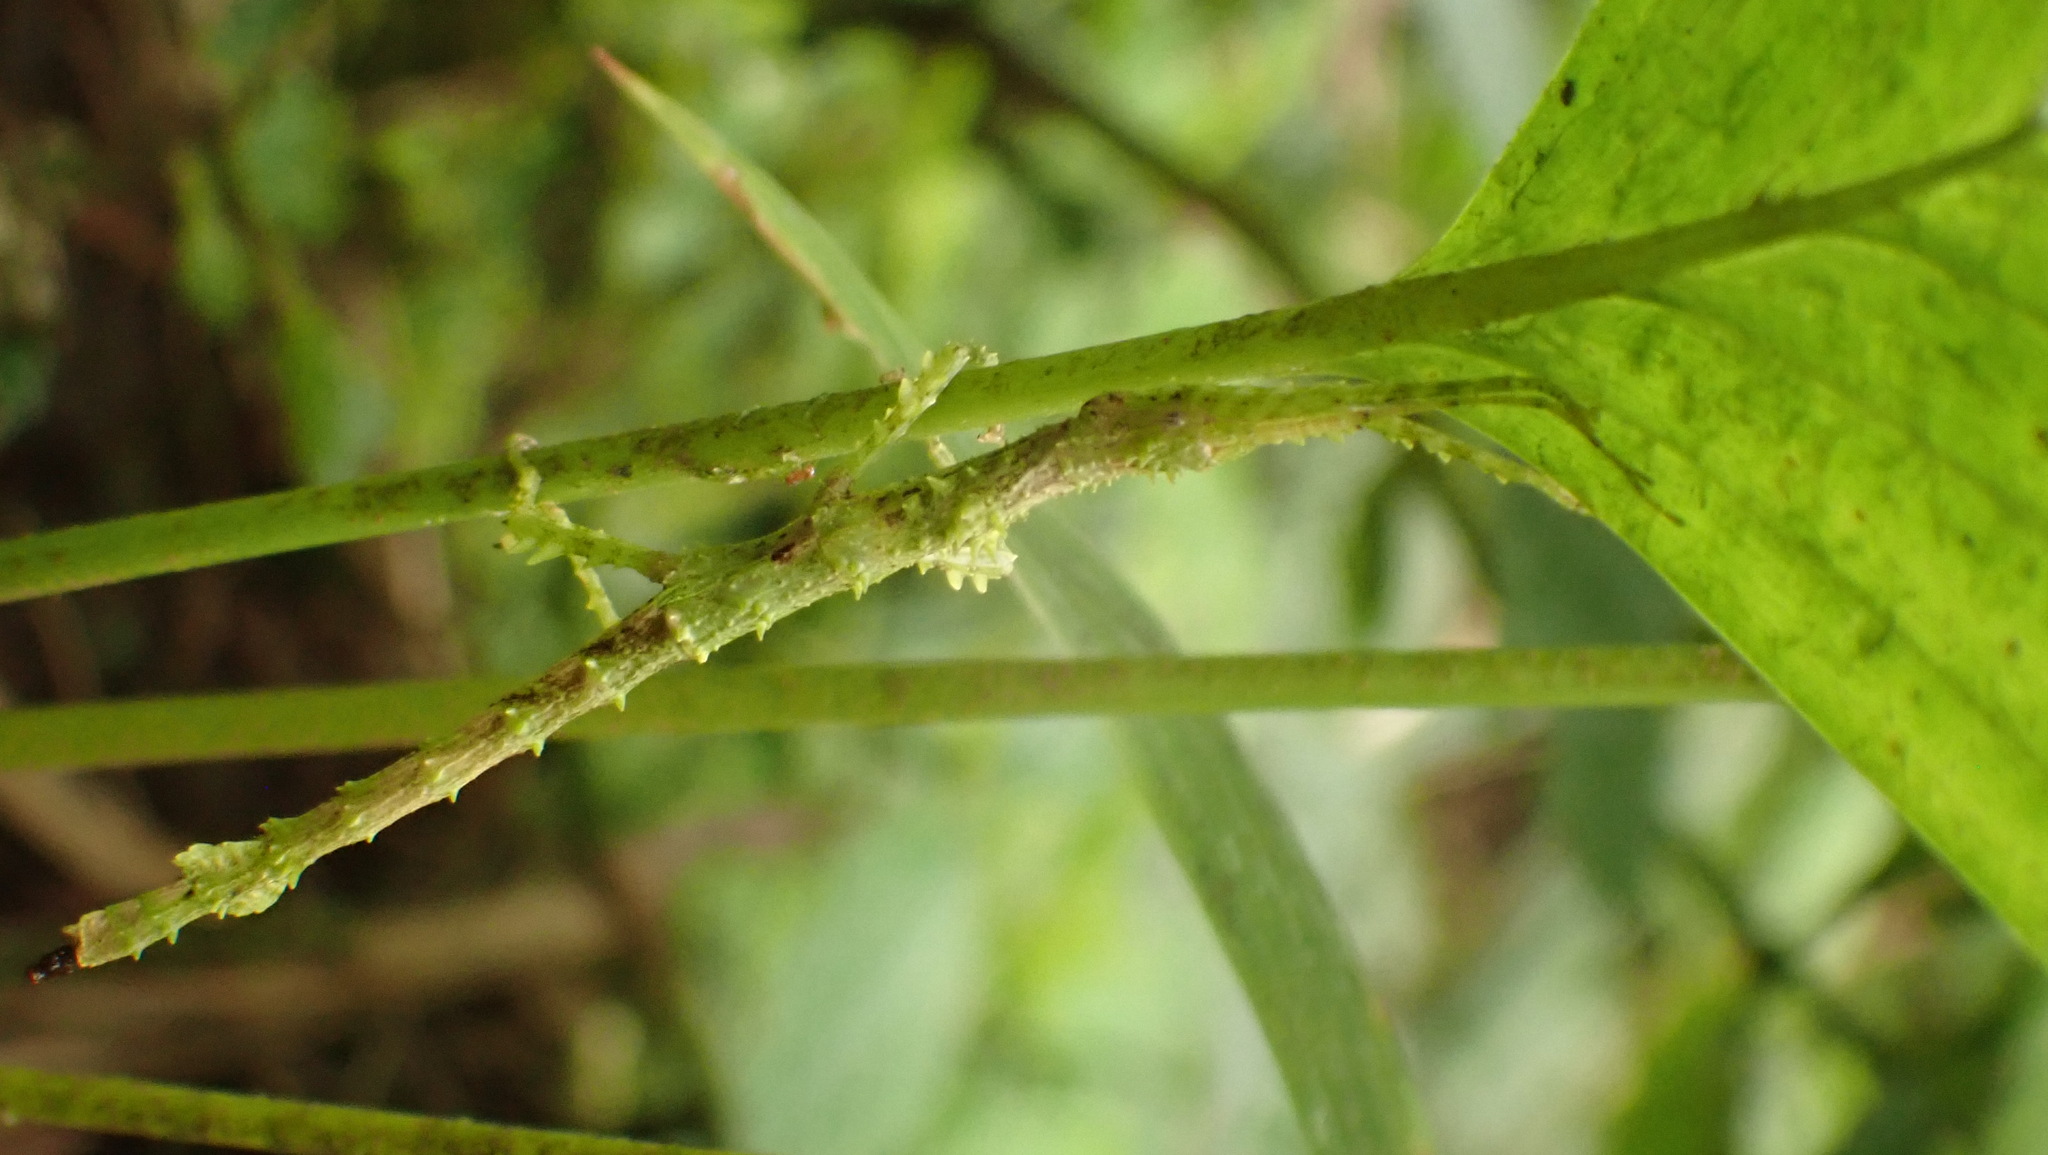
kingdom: Animalia
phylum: Arthropoda
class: Insecta
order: Phasmida
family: Phasmatidae
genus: Lamponius
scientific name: Lamponius nebulosus
